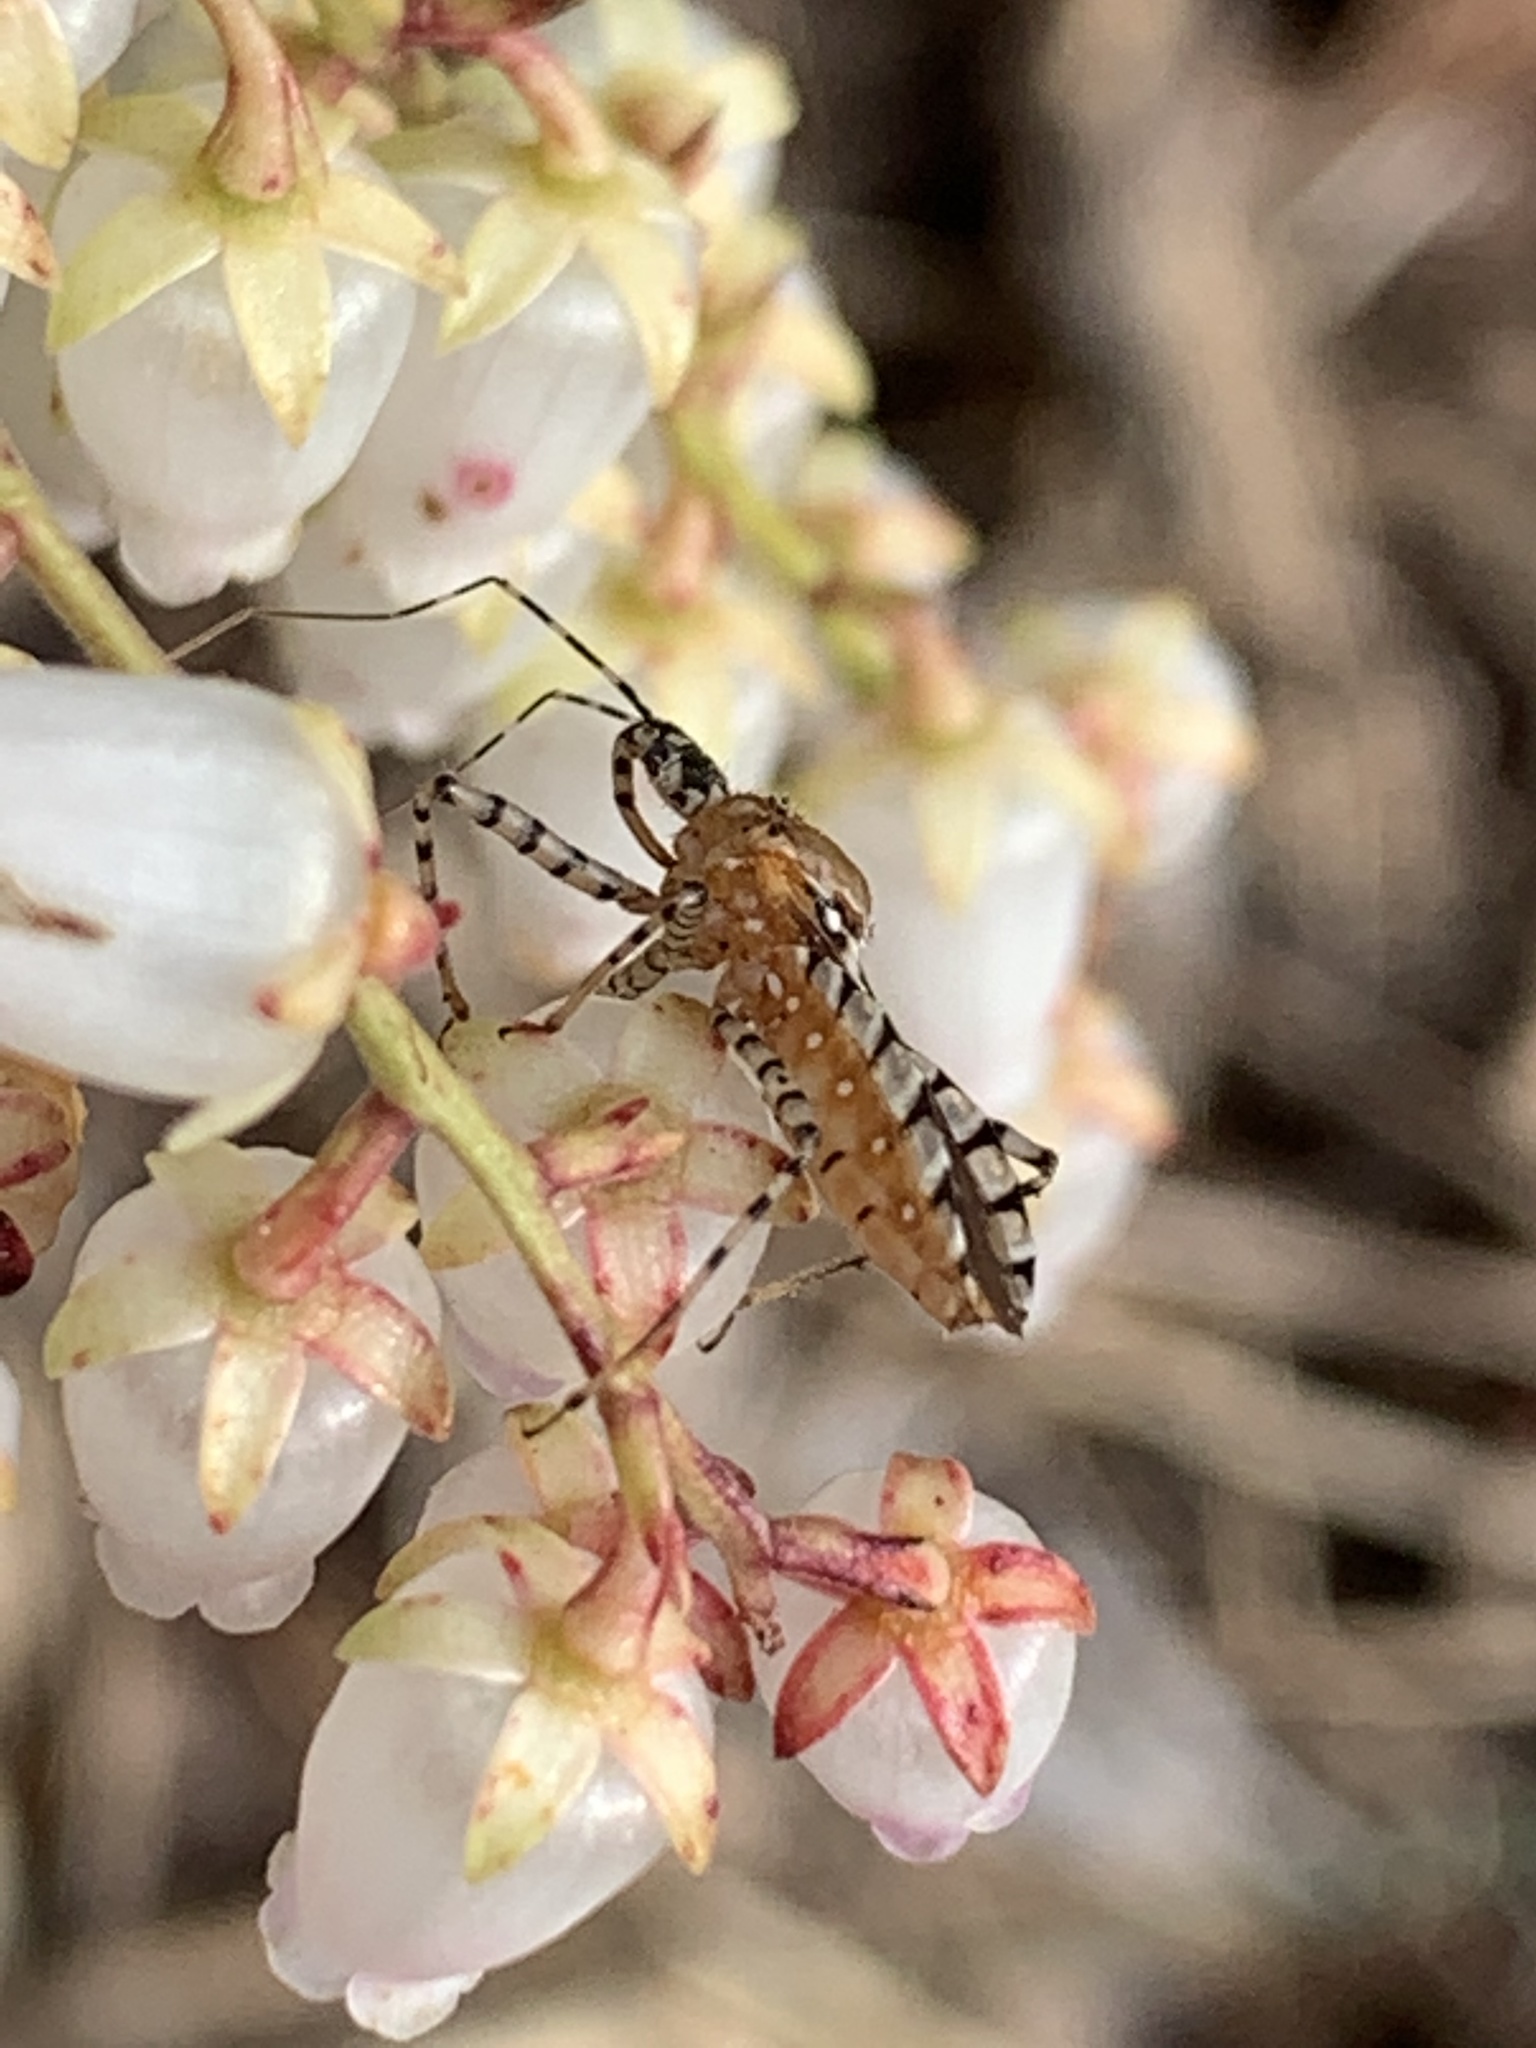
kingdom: Animalia
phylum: Arthropoda
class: Insecta
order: Hemiptera
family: Reduviidae
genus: Pselliopus
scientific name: Pselliopus cinctus
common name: Ringed assassin bug
